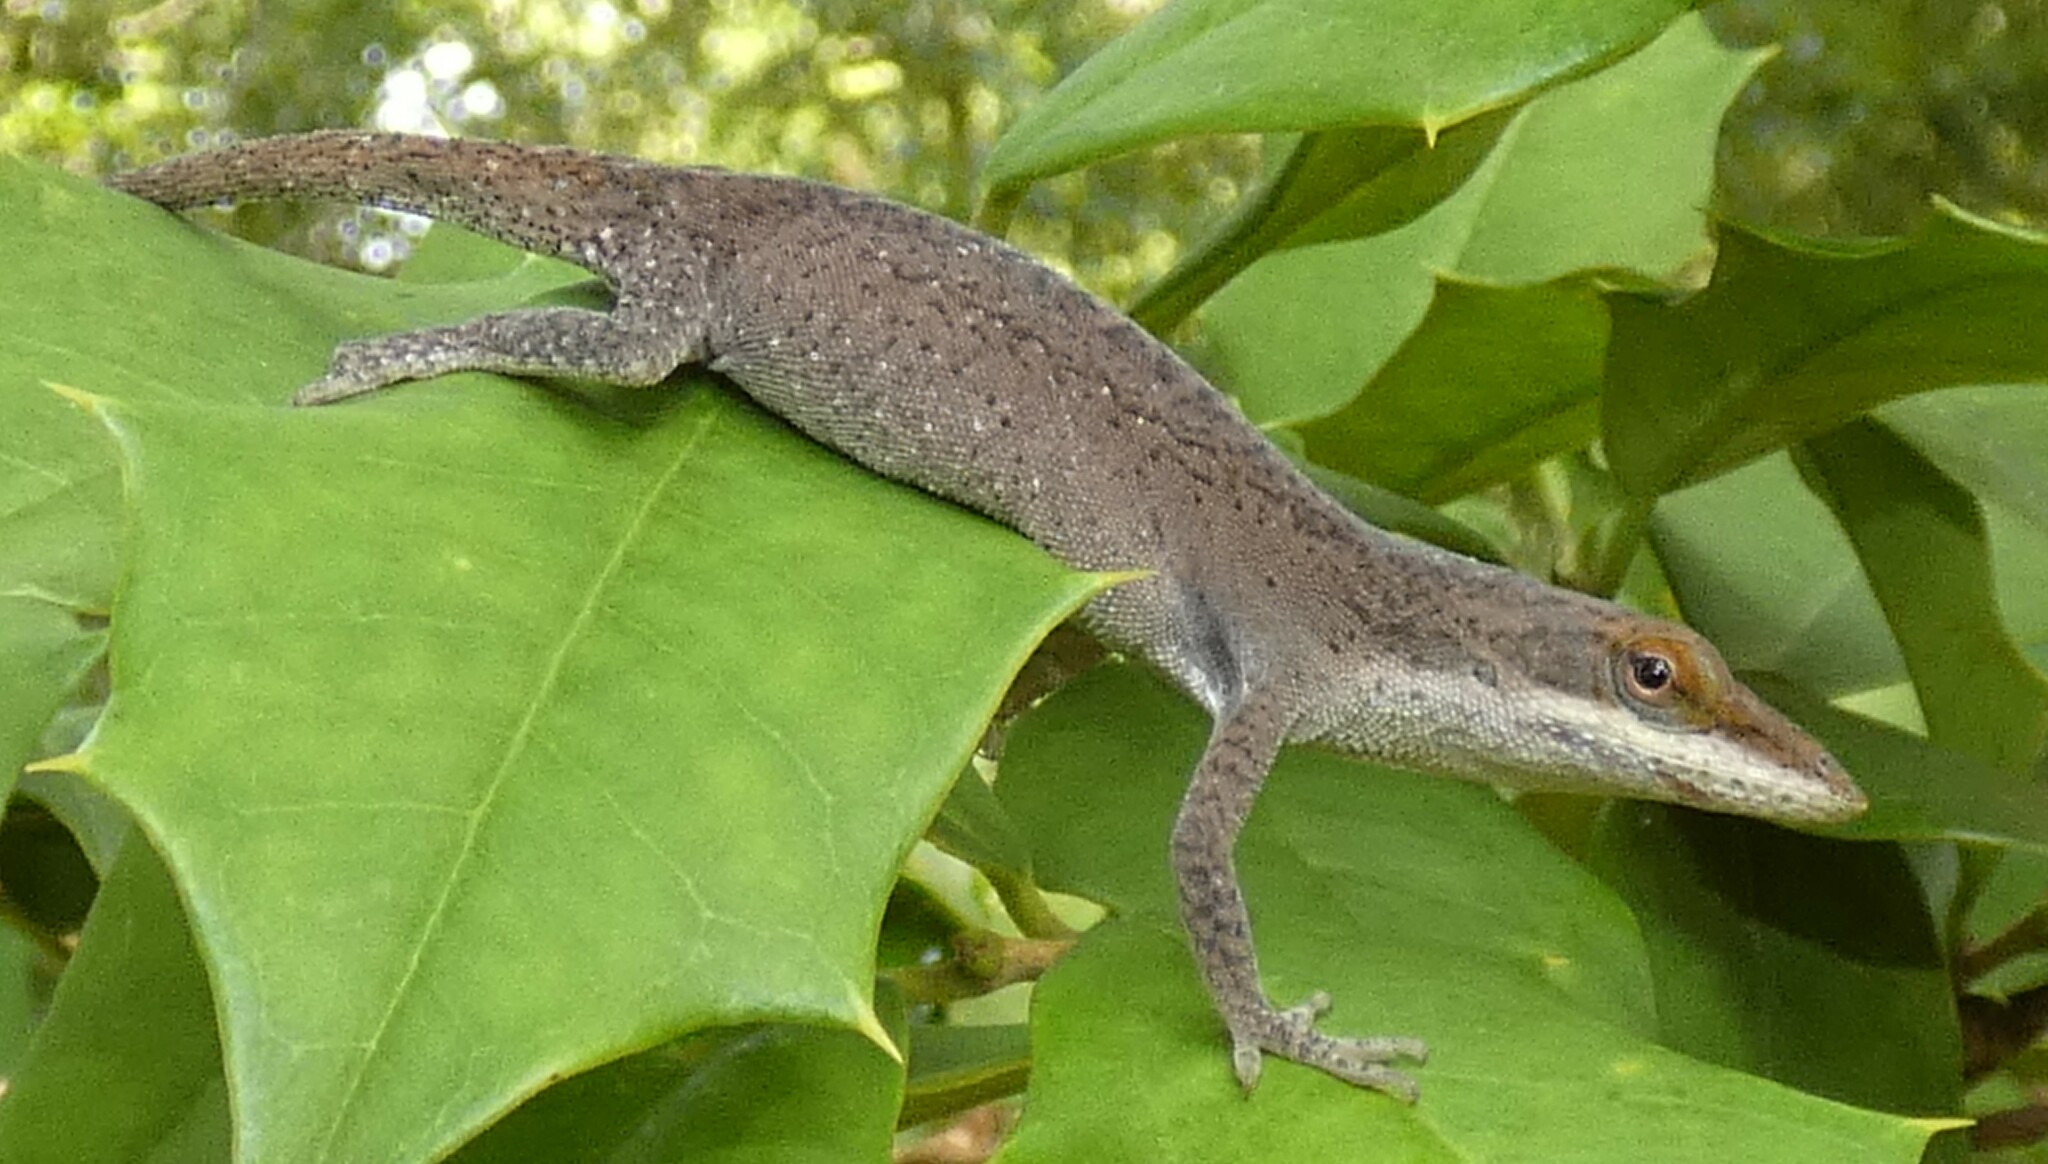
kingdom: Animalia
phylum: Chordata
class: Squamata
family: Dactyloidae
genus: Anolis
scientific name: Anolis carolinensis
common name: Green anole
